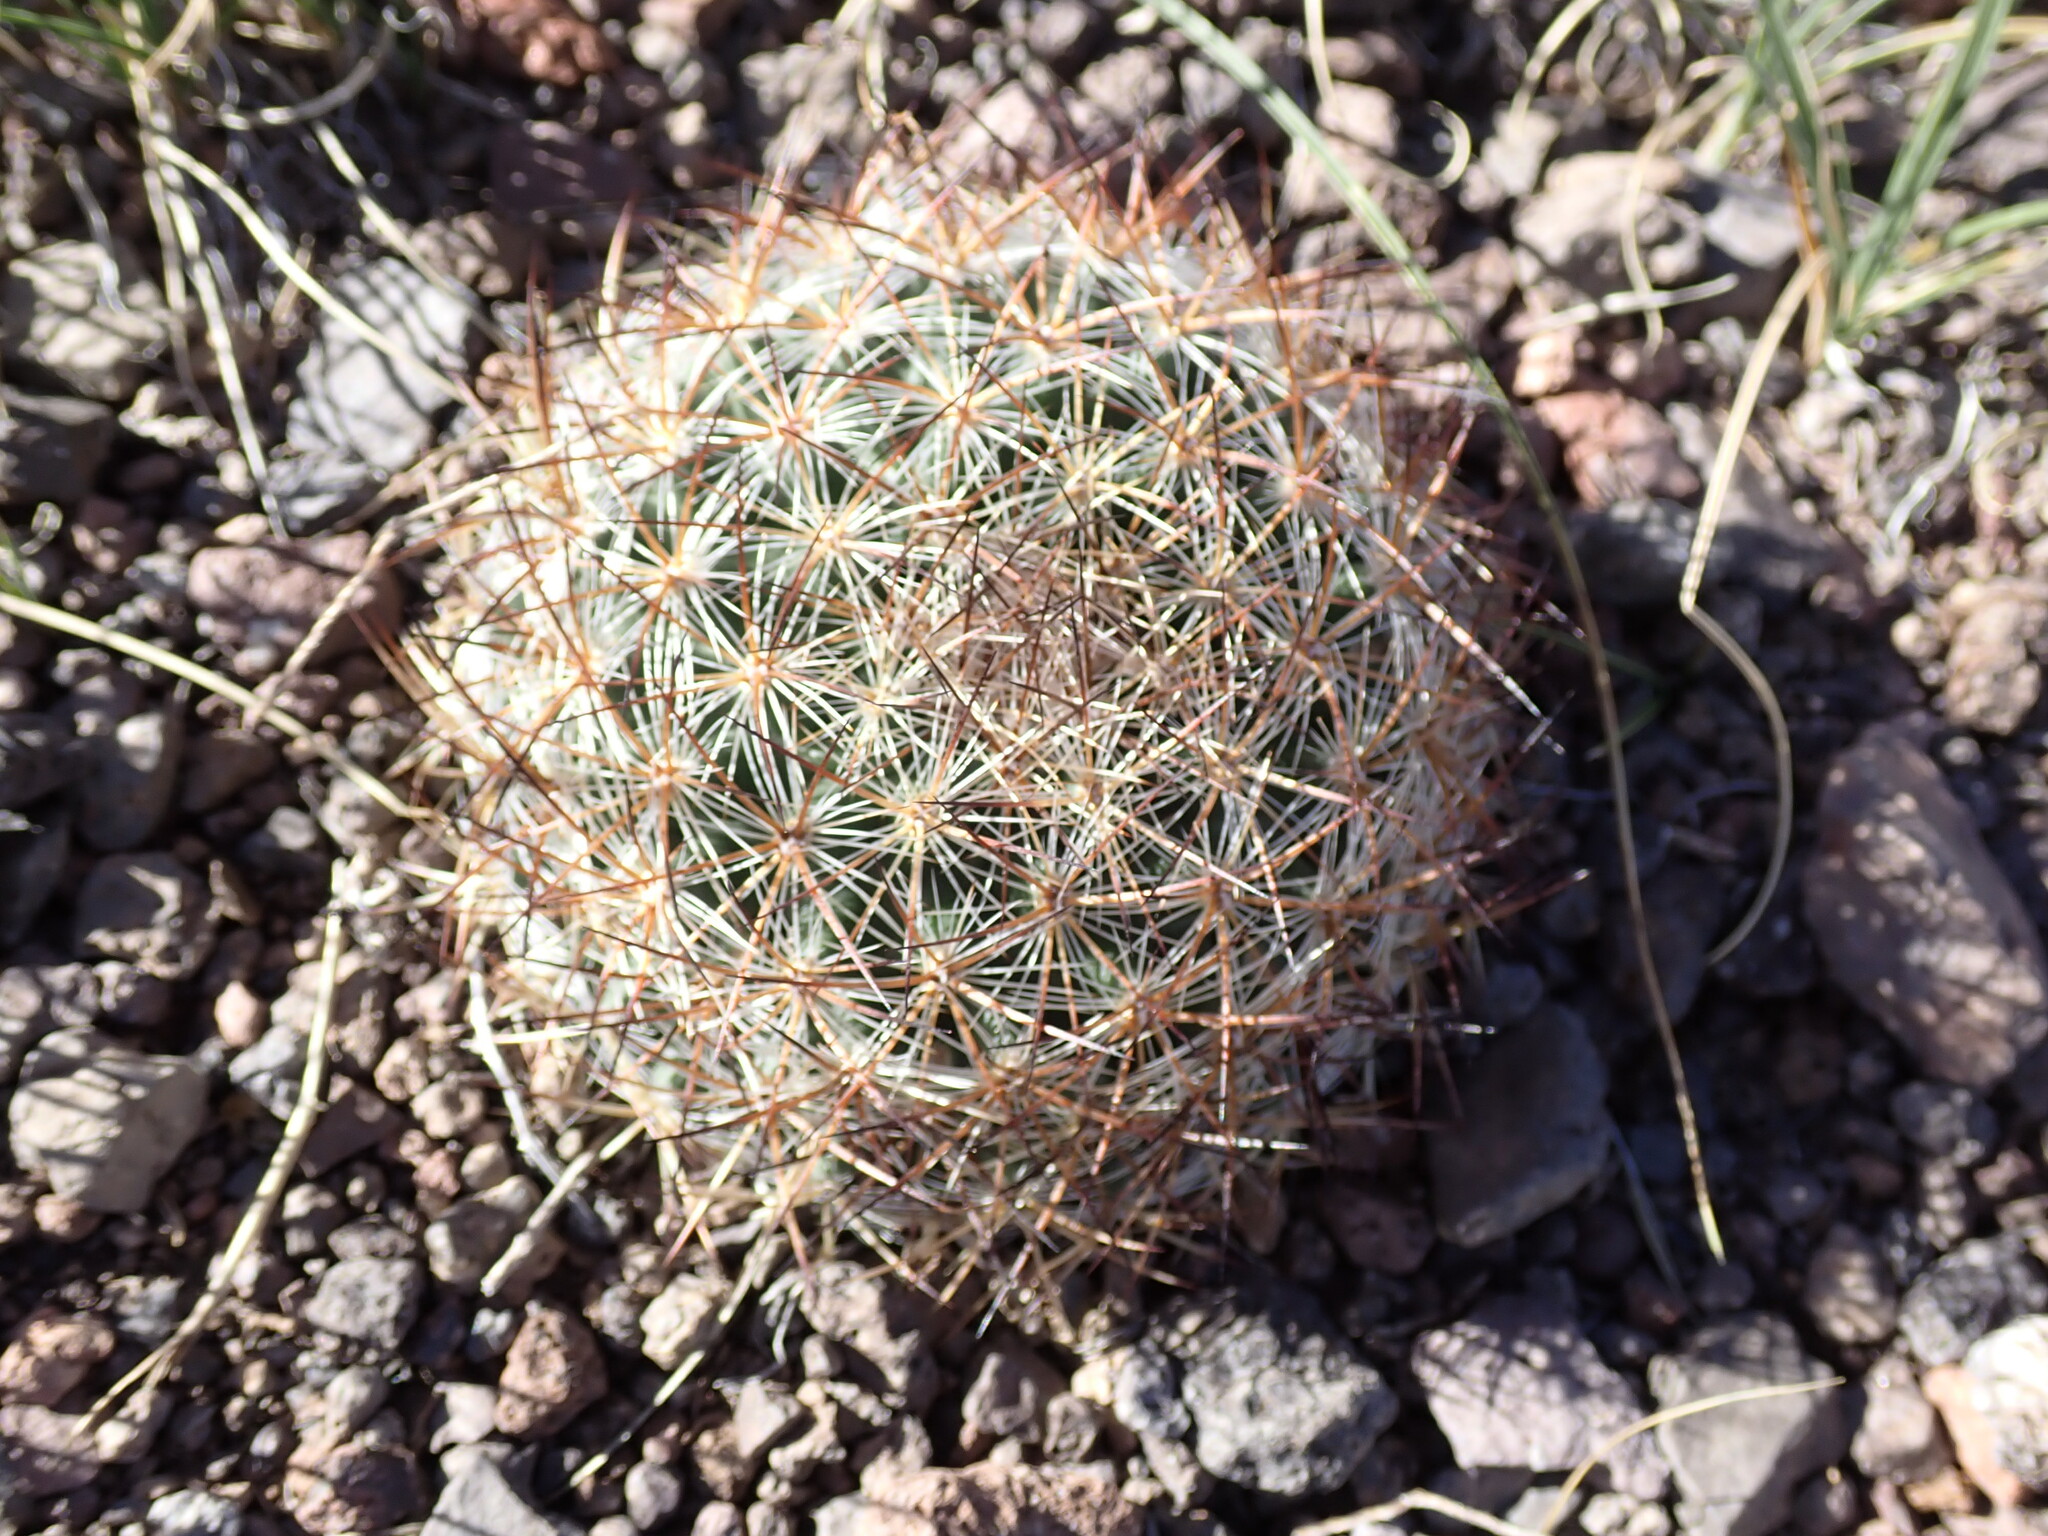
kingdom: Plantae
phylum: Tracheophyta
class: Magnoliopsida
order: Caryophyllales
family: Cactaceae
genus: Pediocactus
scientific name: Pediocactus simpsonii
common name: Simpson's hedgehog cactus
